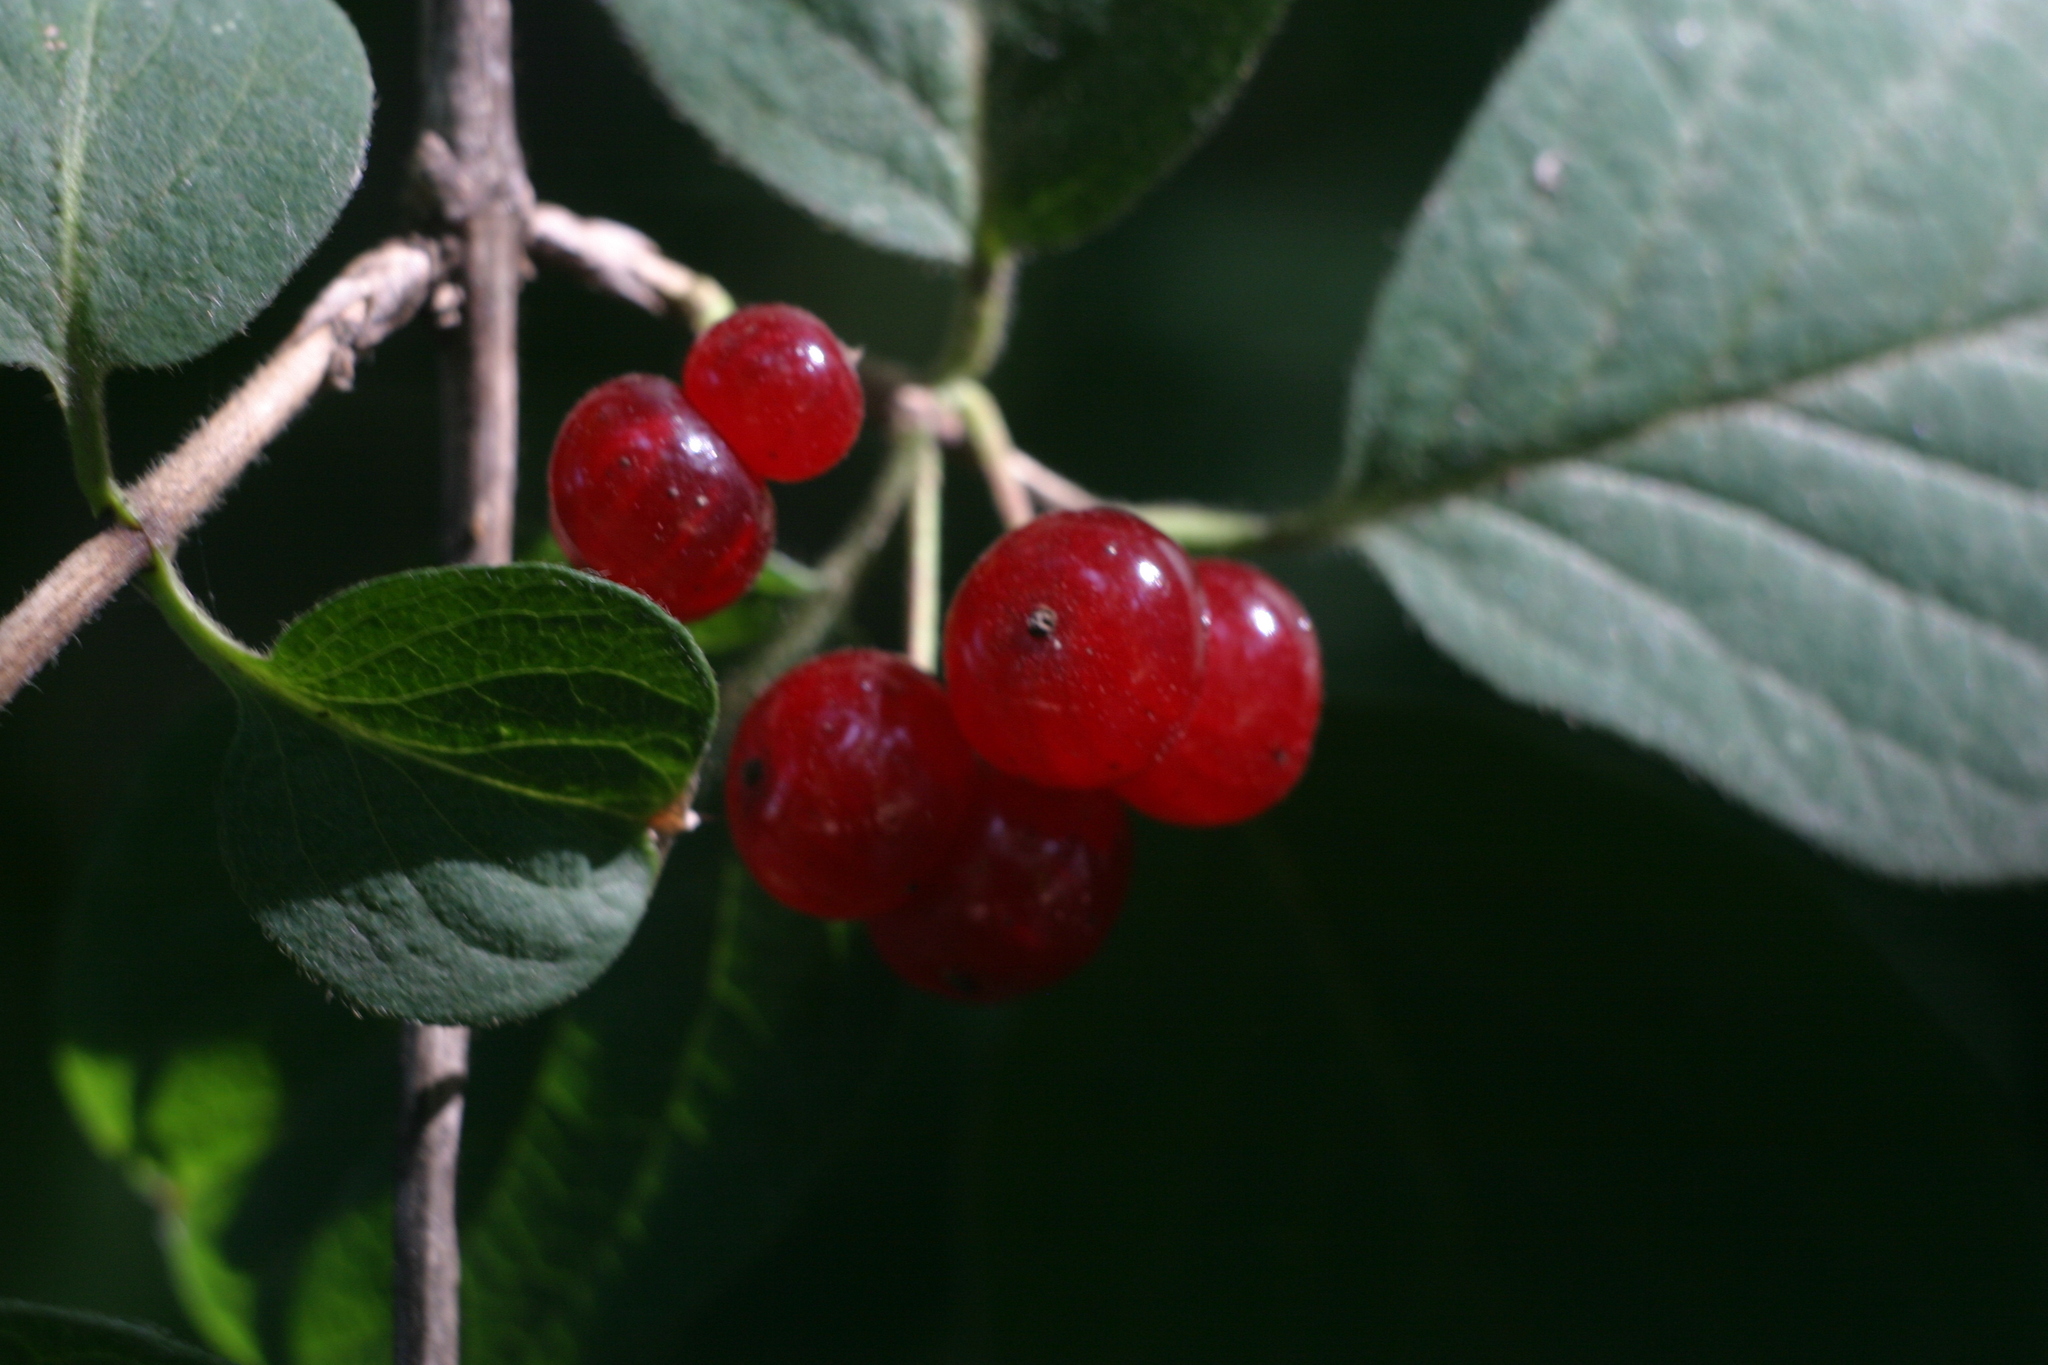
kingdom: Plantae
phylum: Tracheophyta
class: Magnoliopsida
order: Dipsacales
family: Caprifoliaceae
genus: Lonicera
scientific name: Lonicera xylosteum
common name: Fly honeysuckle
